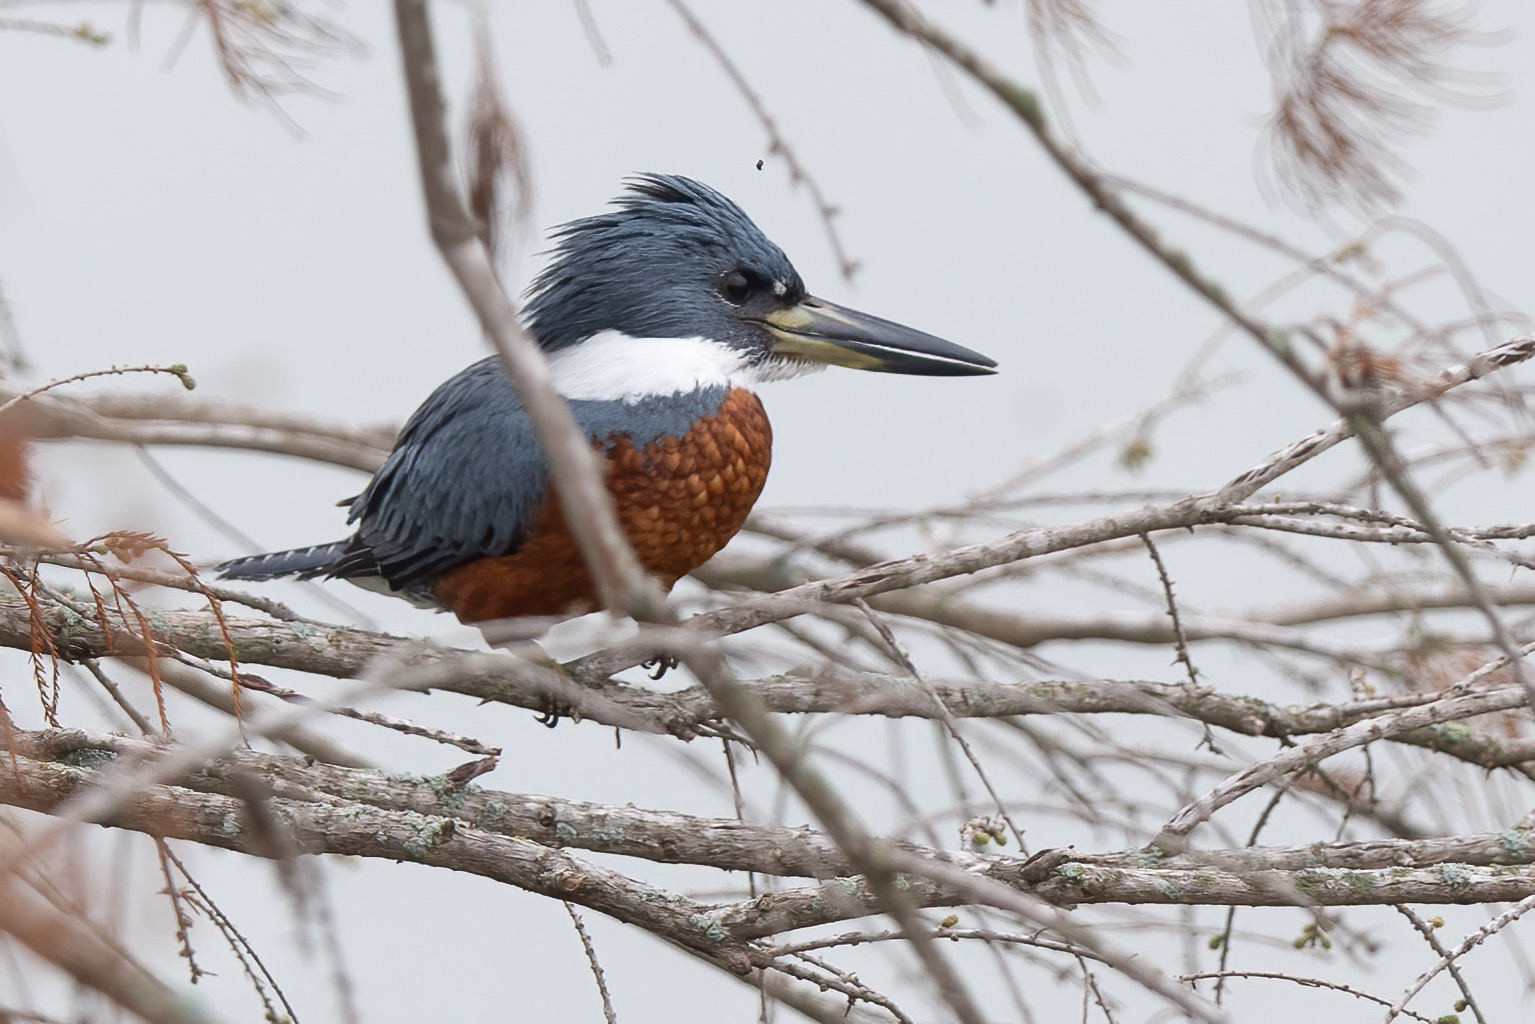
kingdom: Animalia
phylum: Chordata
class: Aves
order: Coraciiformes
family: Alcedinidae
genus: Megaceryle
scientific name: Megaceryle torquata
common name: Ringed kingfisher
